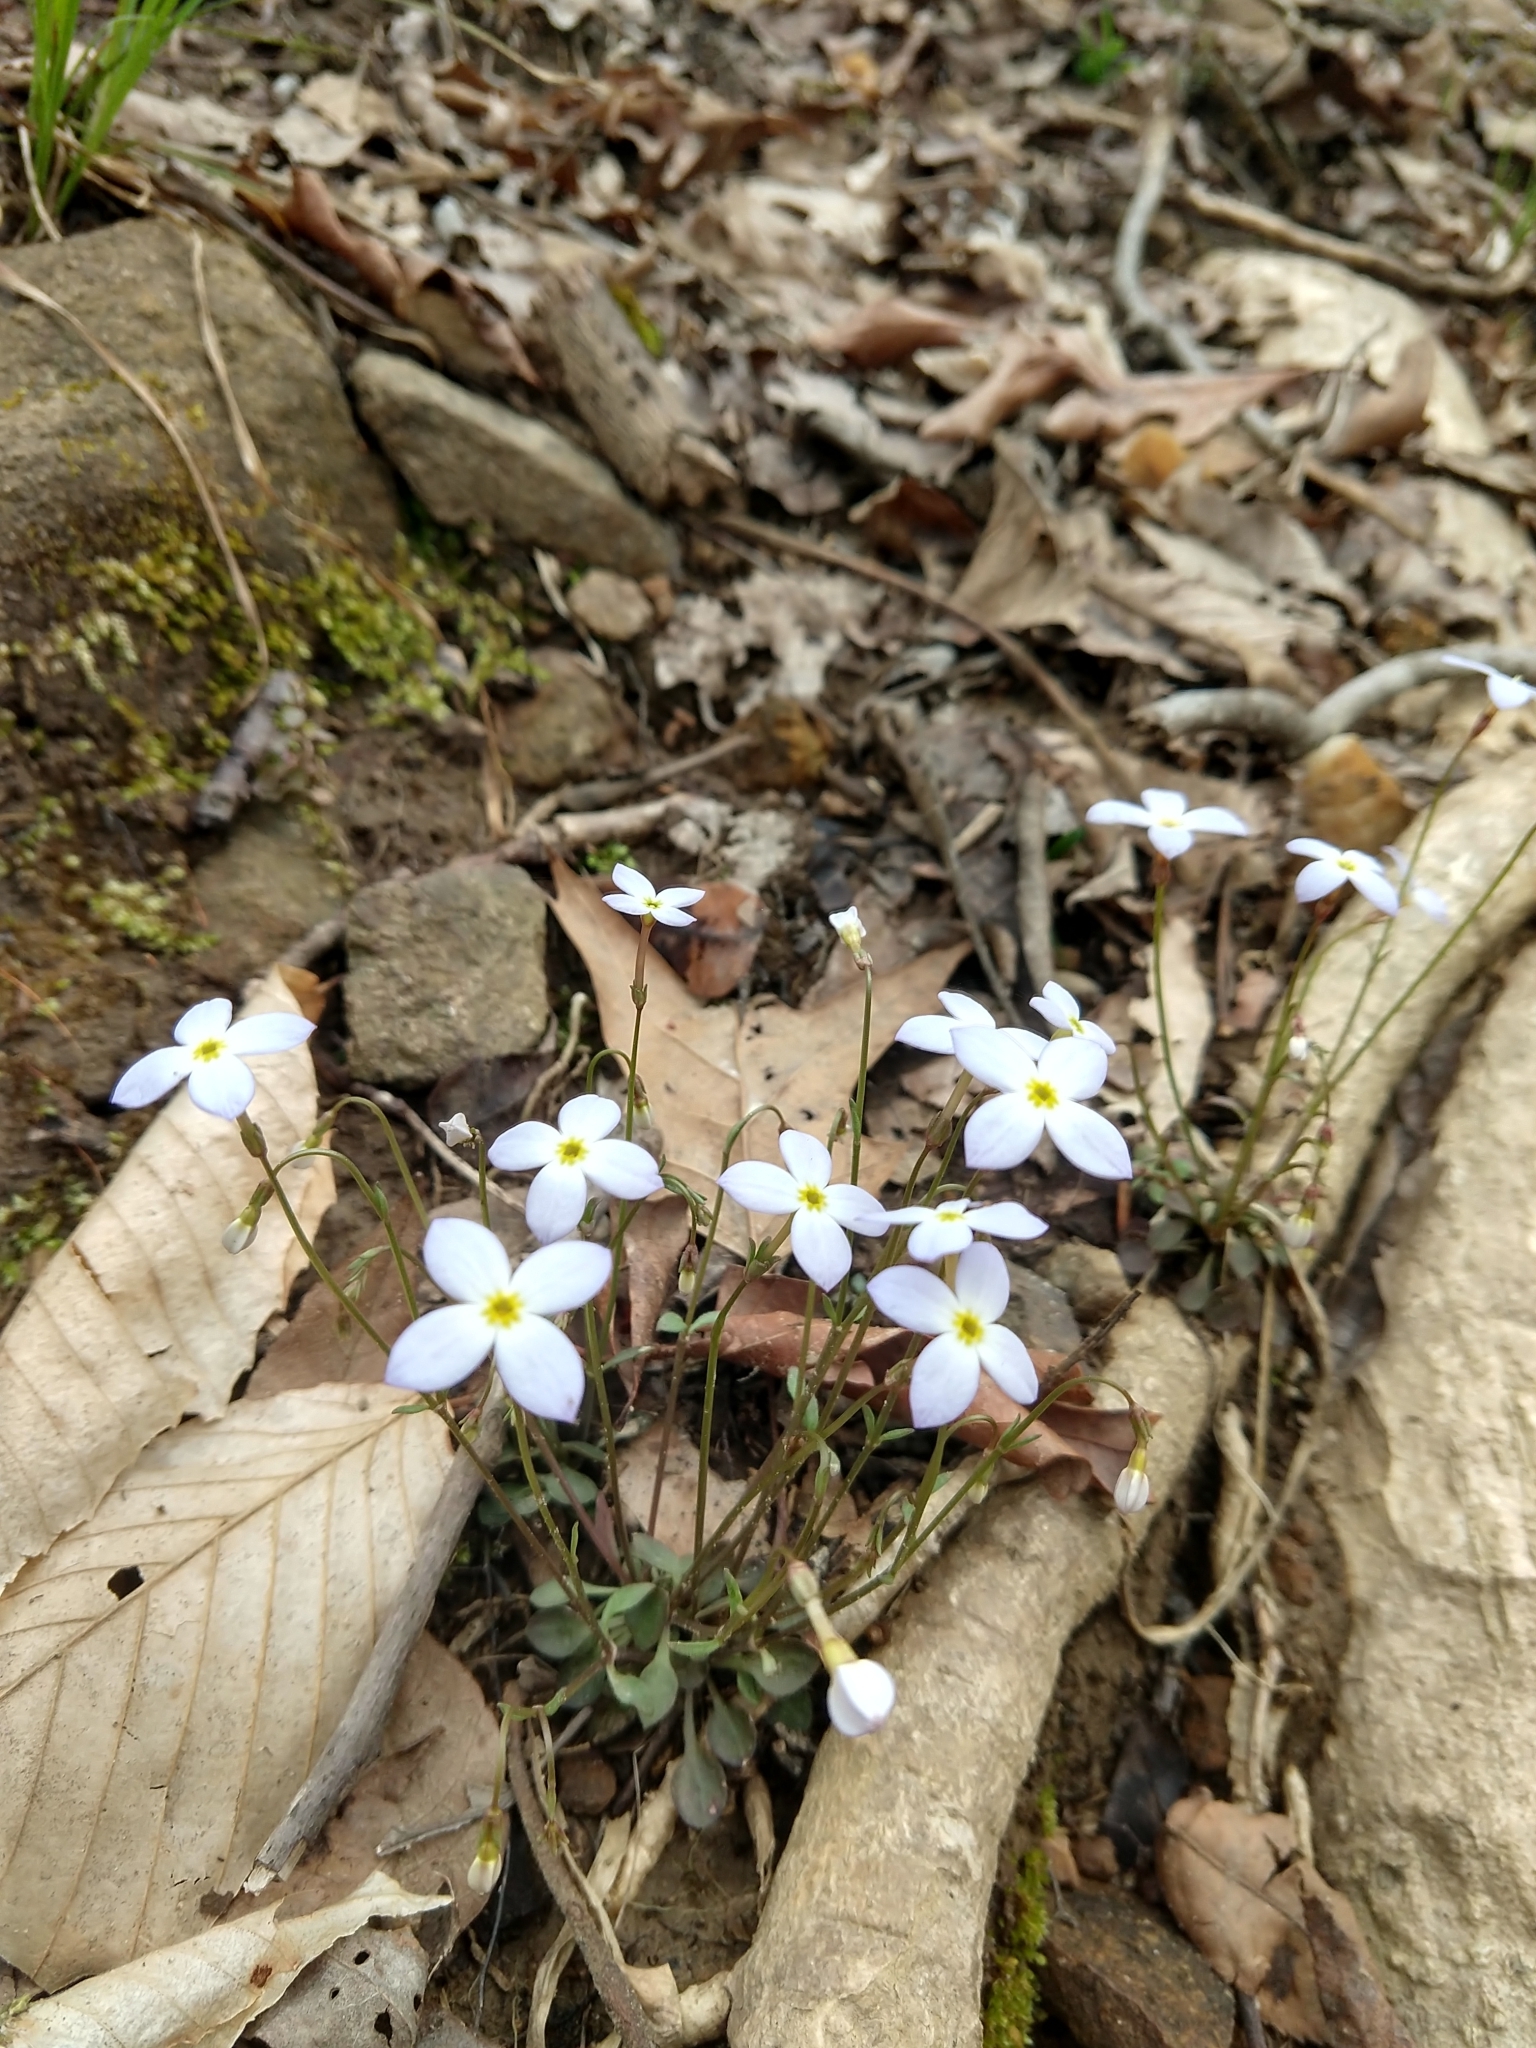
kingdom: Plantae
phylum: Tracheophyta
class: Magnoliopsida
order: Gentianales
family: Rubiaceae
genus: Houstonia
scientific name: Houstonia caerulea
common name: Bluets
